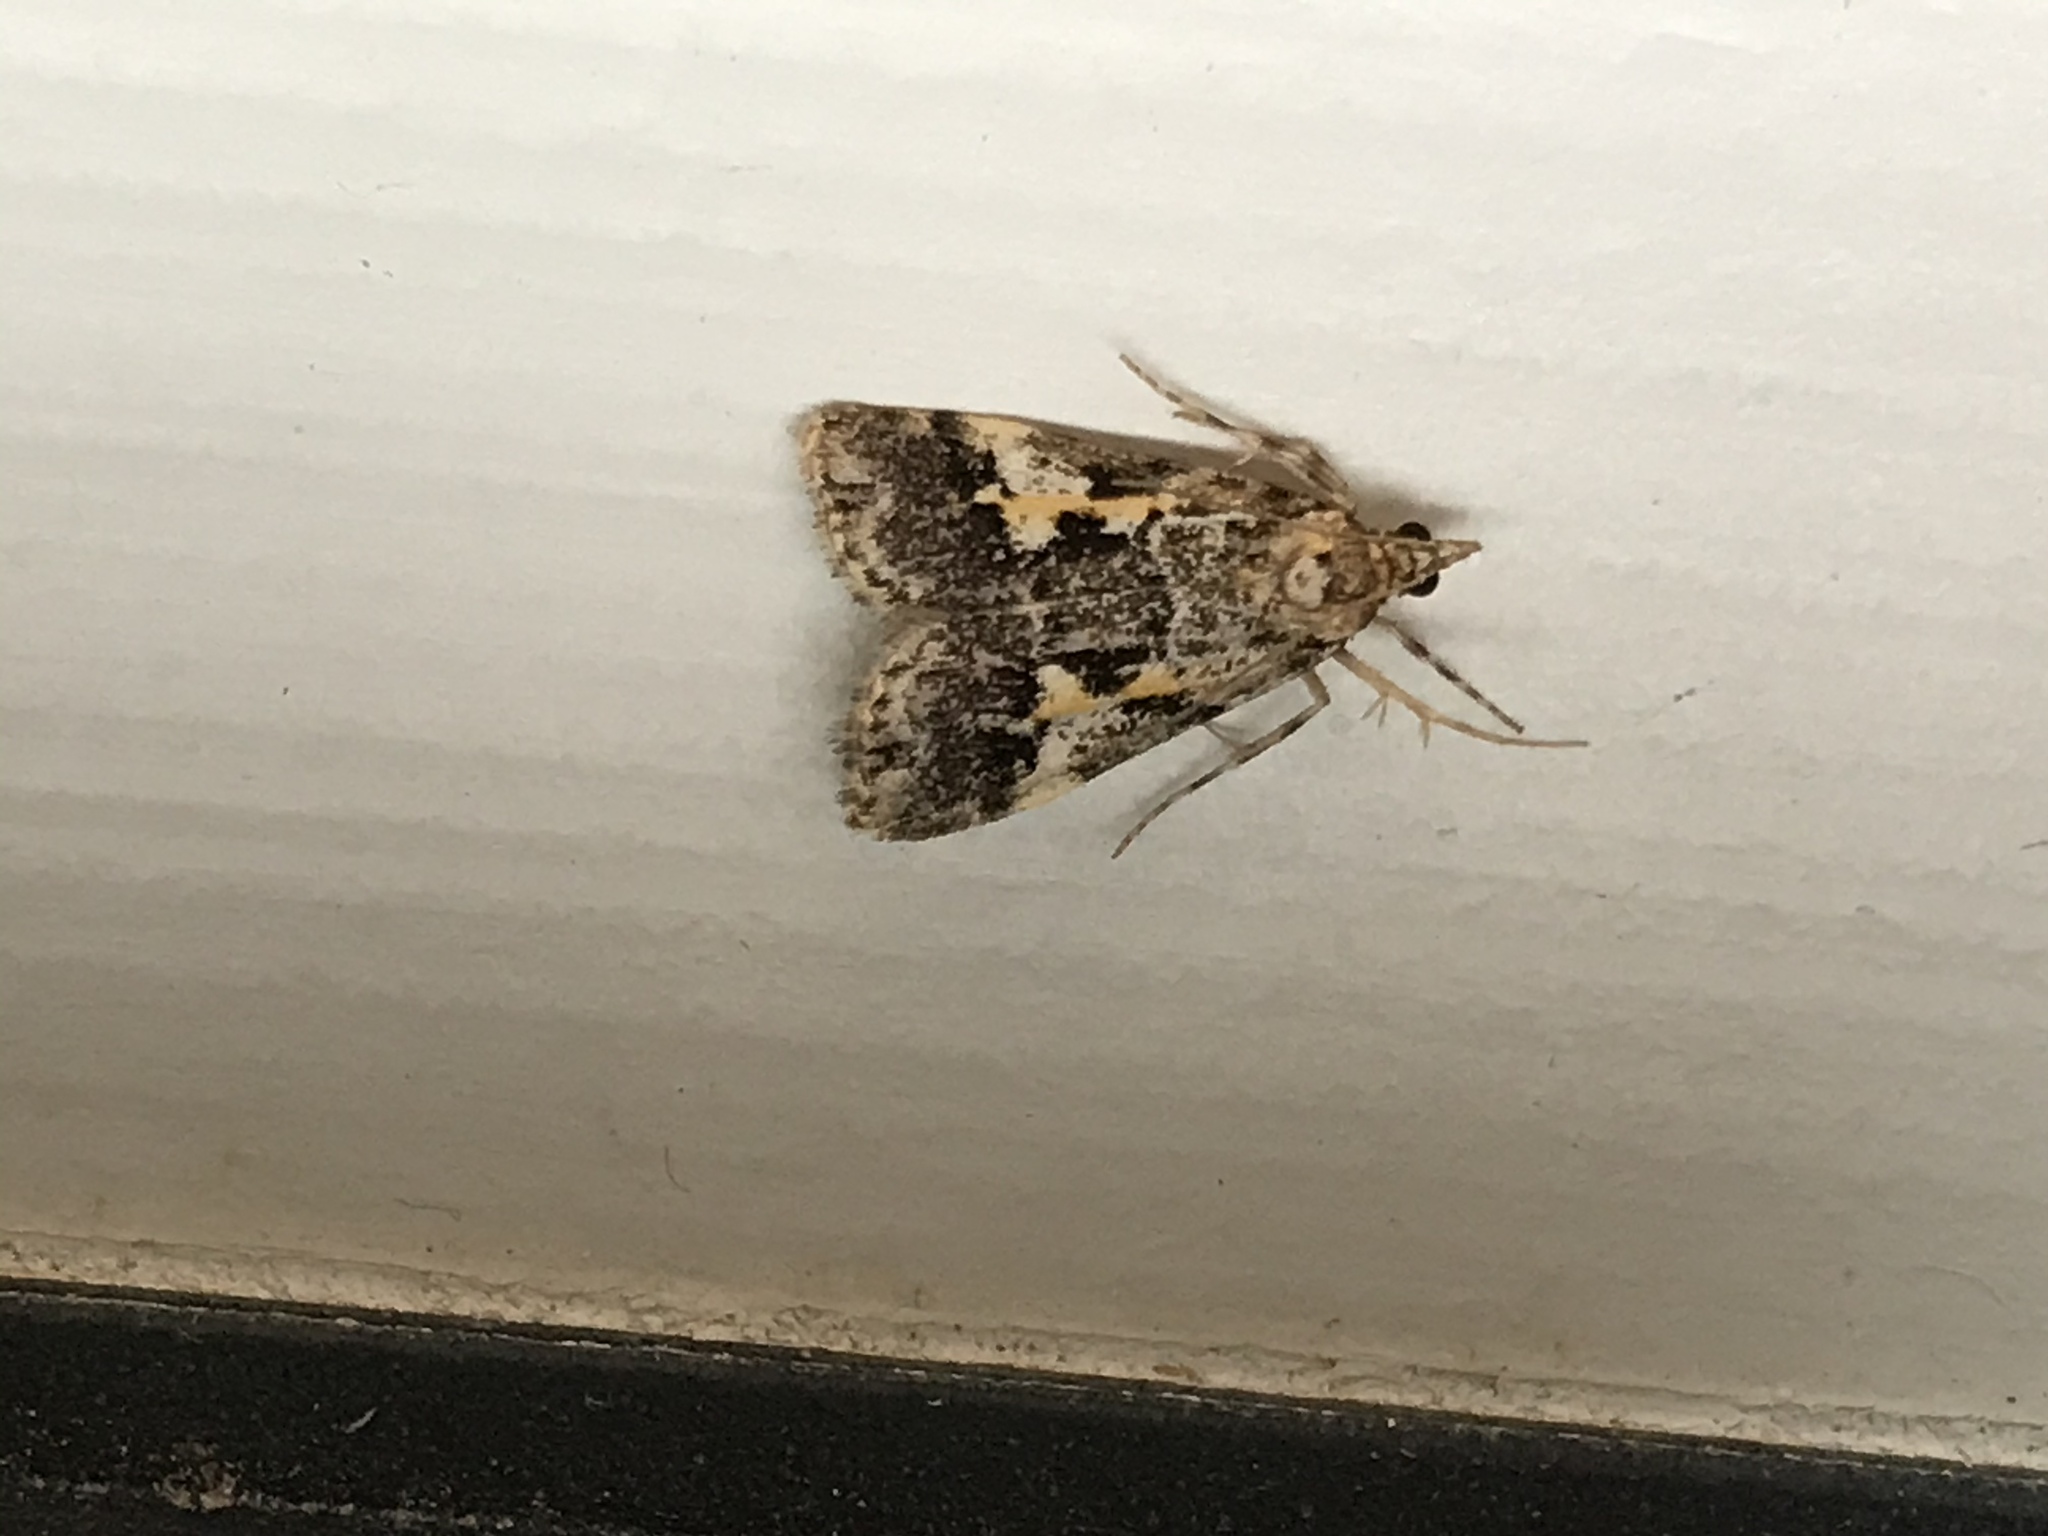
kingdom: Animalia
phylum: Arthropoda
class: Insecta
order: Lepidoptera
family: Crambidae
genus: Eudonia
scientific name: Eudonia characta
